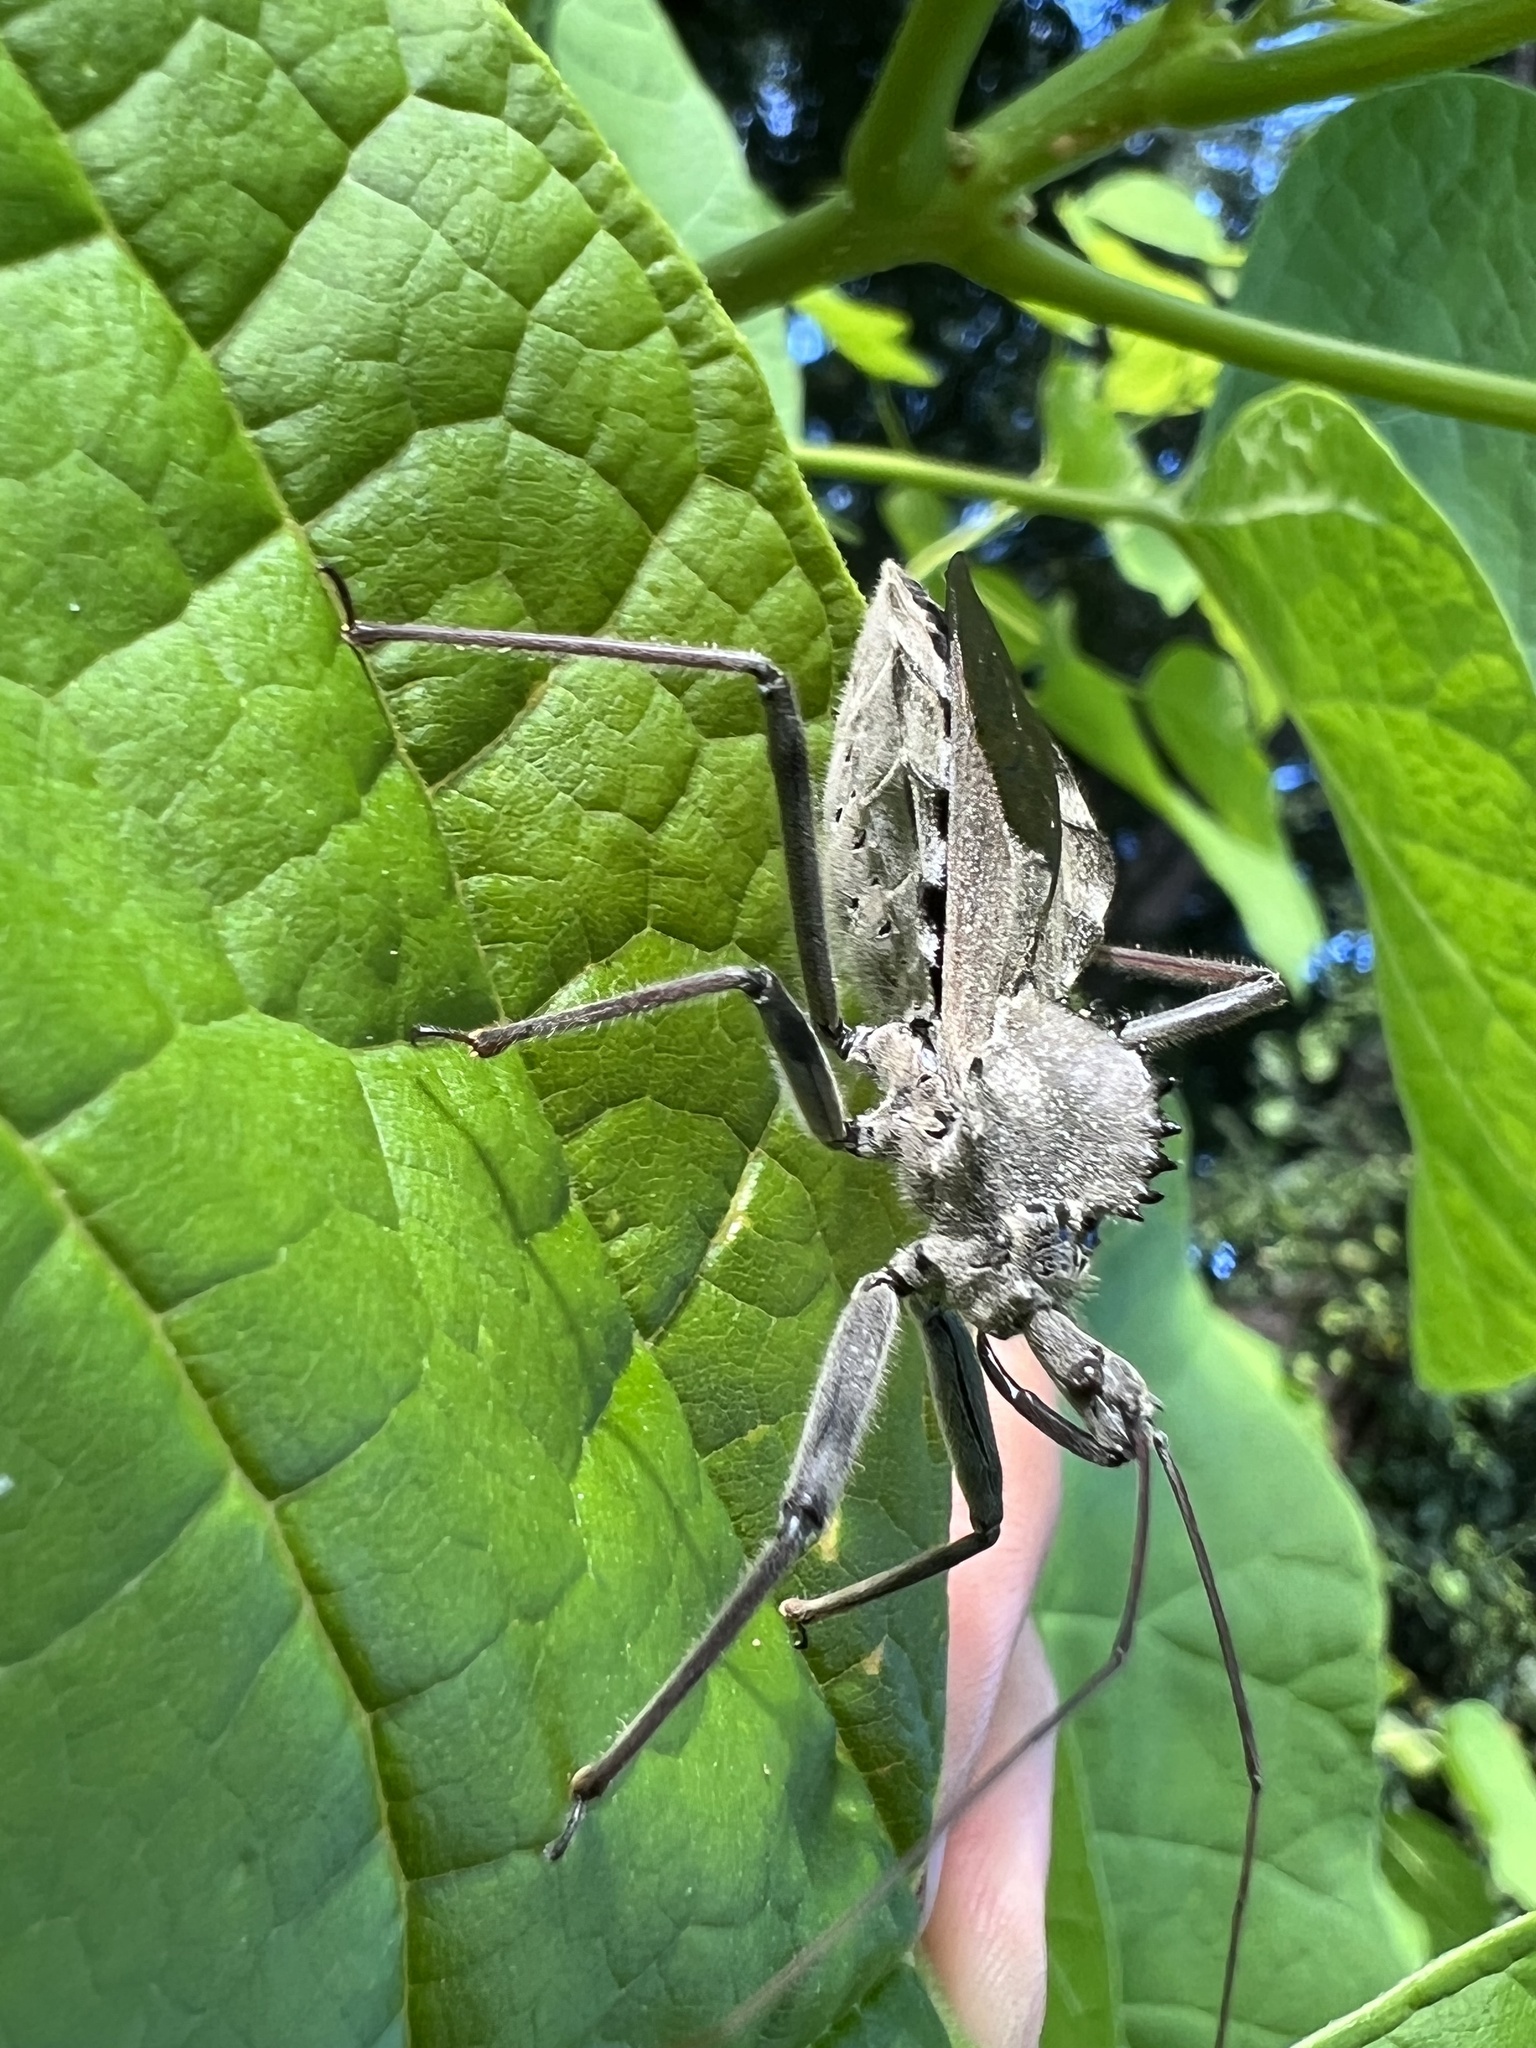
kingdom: Animalia
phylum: Arthropoda
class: Insecta
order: Hemiptera
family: Reduviidae
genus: Arilus
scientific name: Arilus cristatus
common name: North american wheel bug
